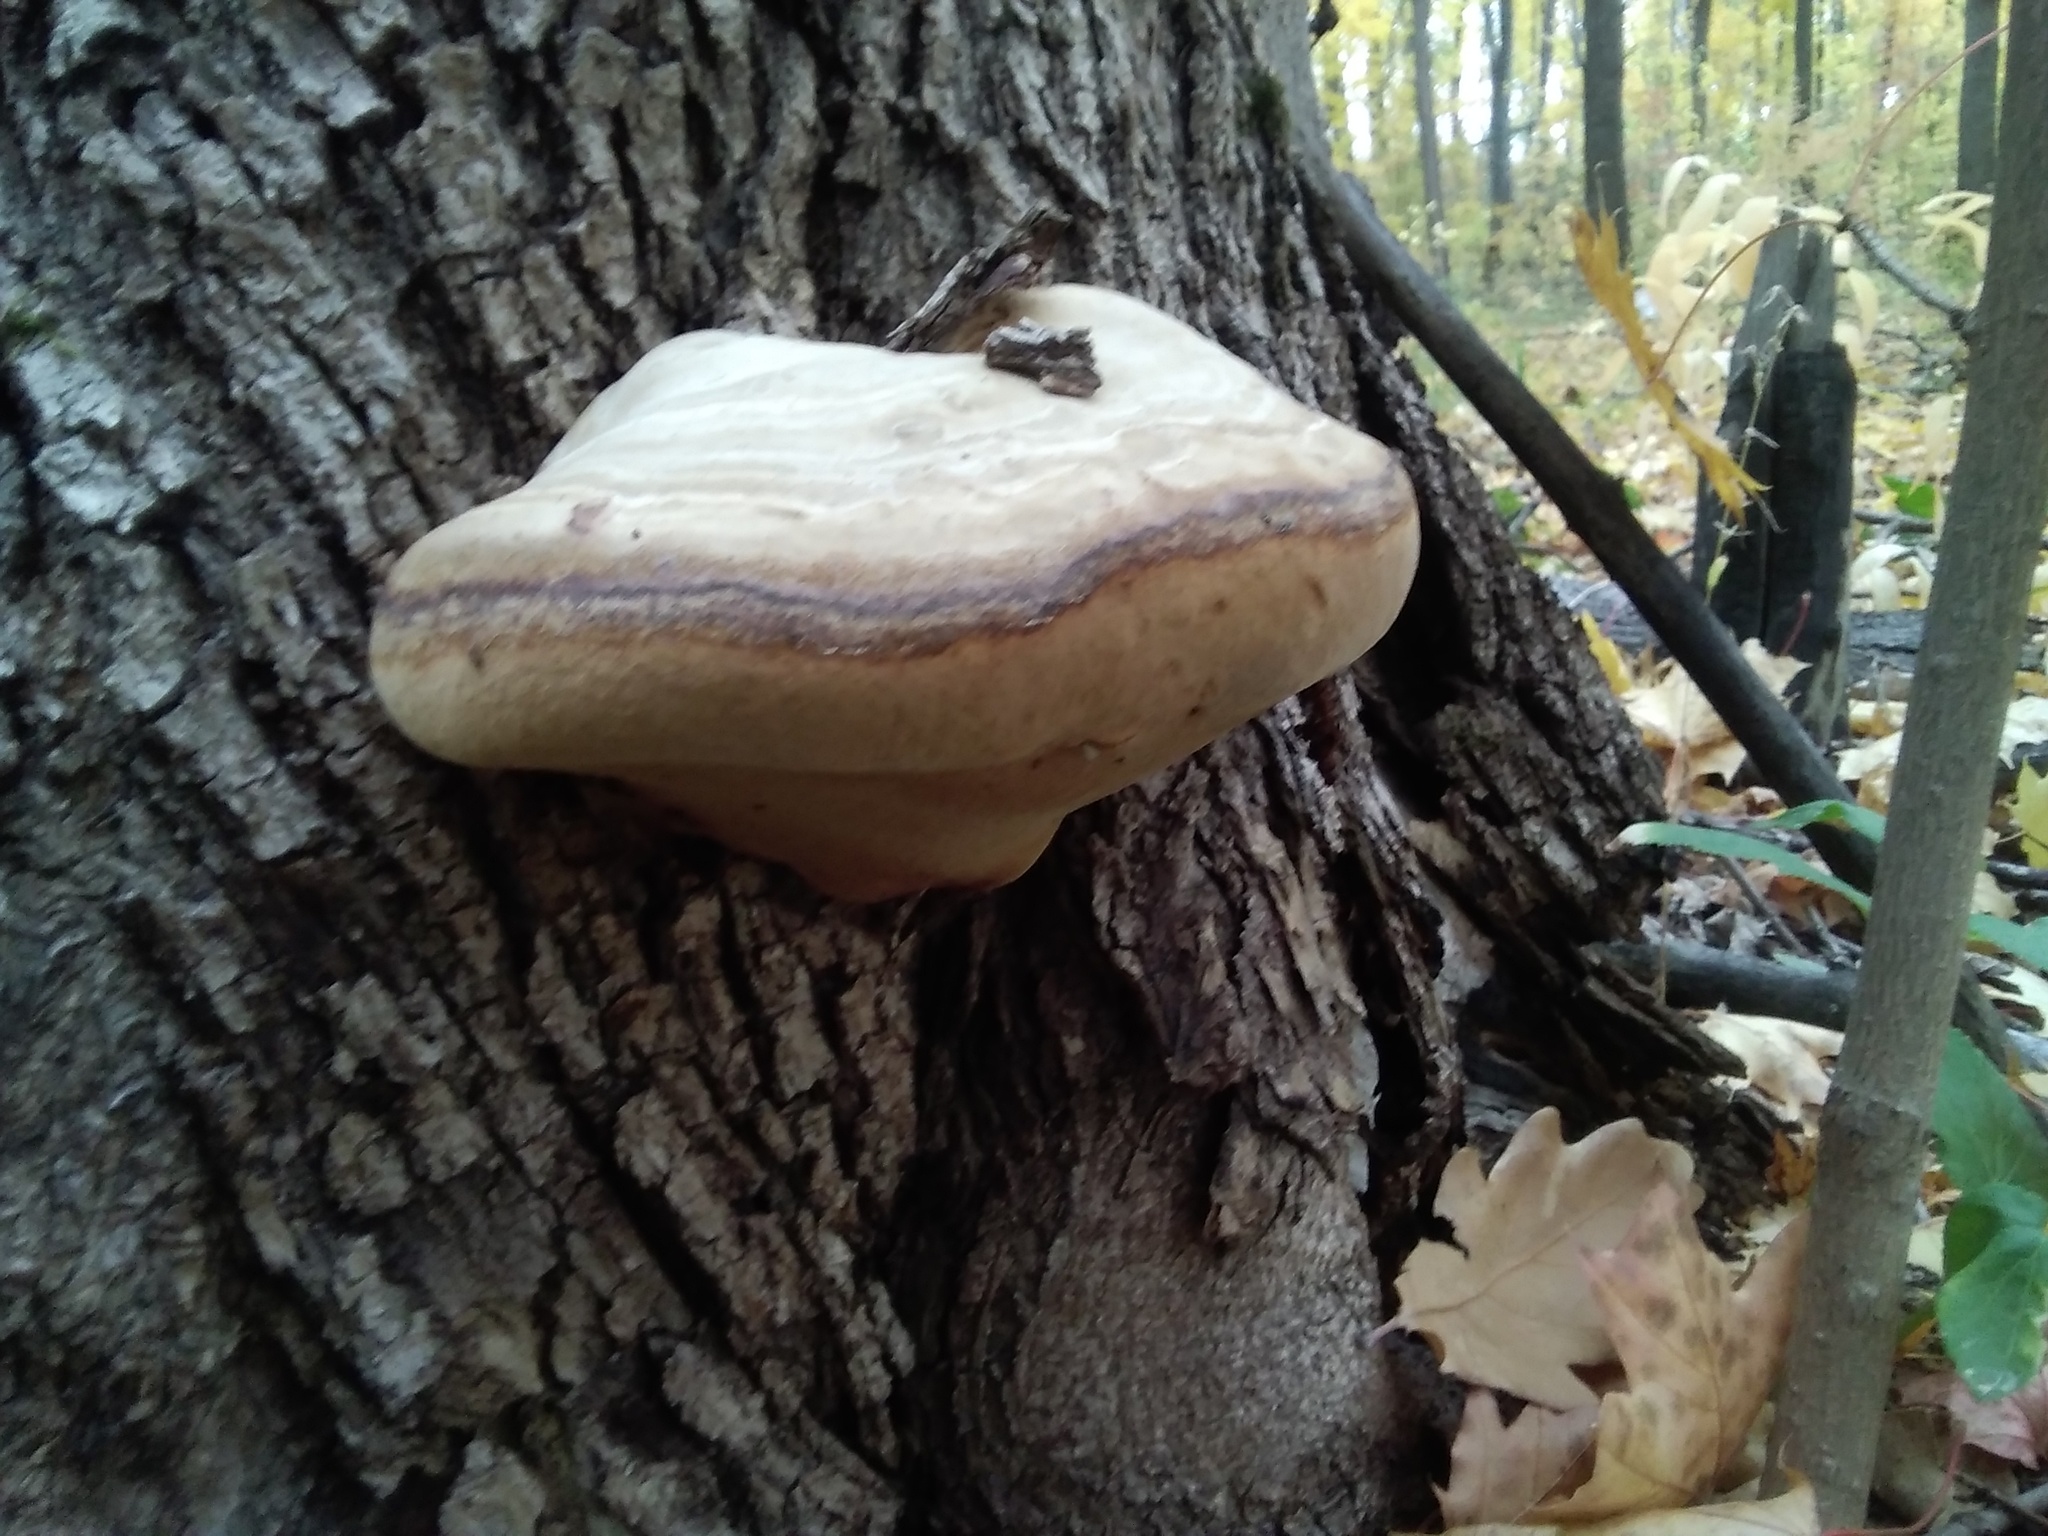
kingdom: Fungi
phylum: Basidiomycota
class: Agaricomycetes
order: Polyporales
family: Polyporaceae
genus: Fomes
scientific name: Fomes fomentarius
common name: Hoof fungus
